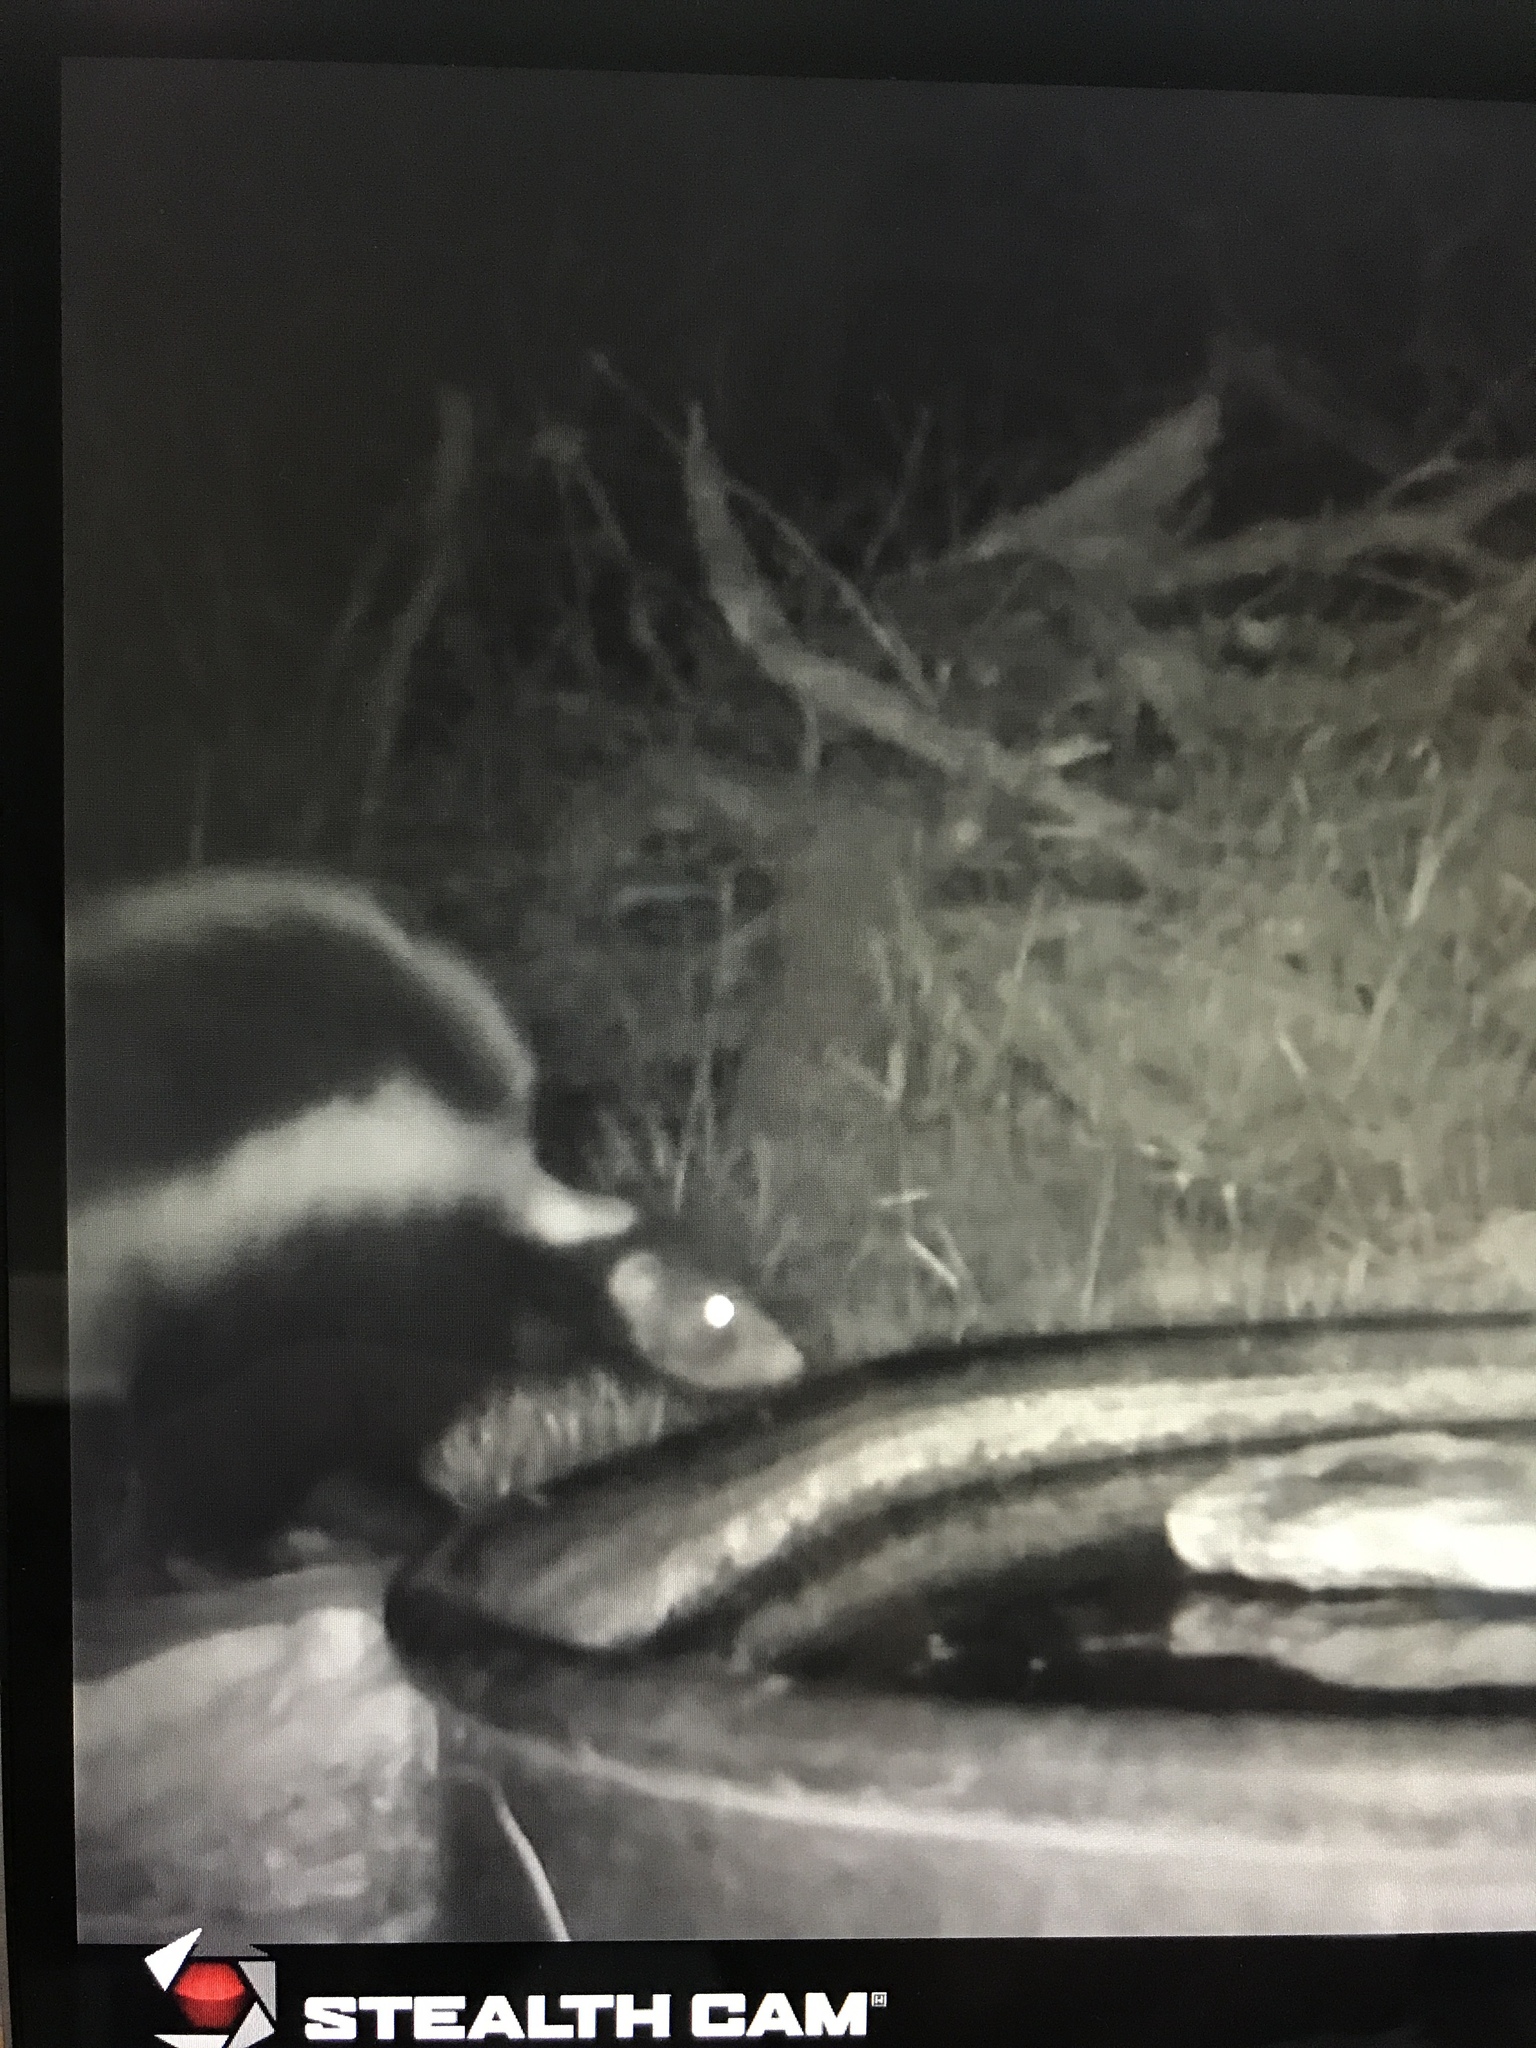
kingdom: Animalia
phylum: Chordata
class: Mammalia
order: Carnivora
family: Mephitidae
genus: Mephitis
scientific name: Mephitis mephitis
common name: Striped skunk
